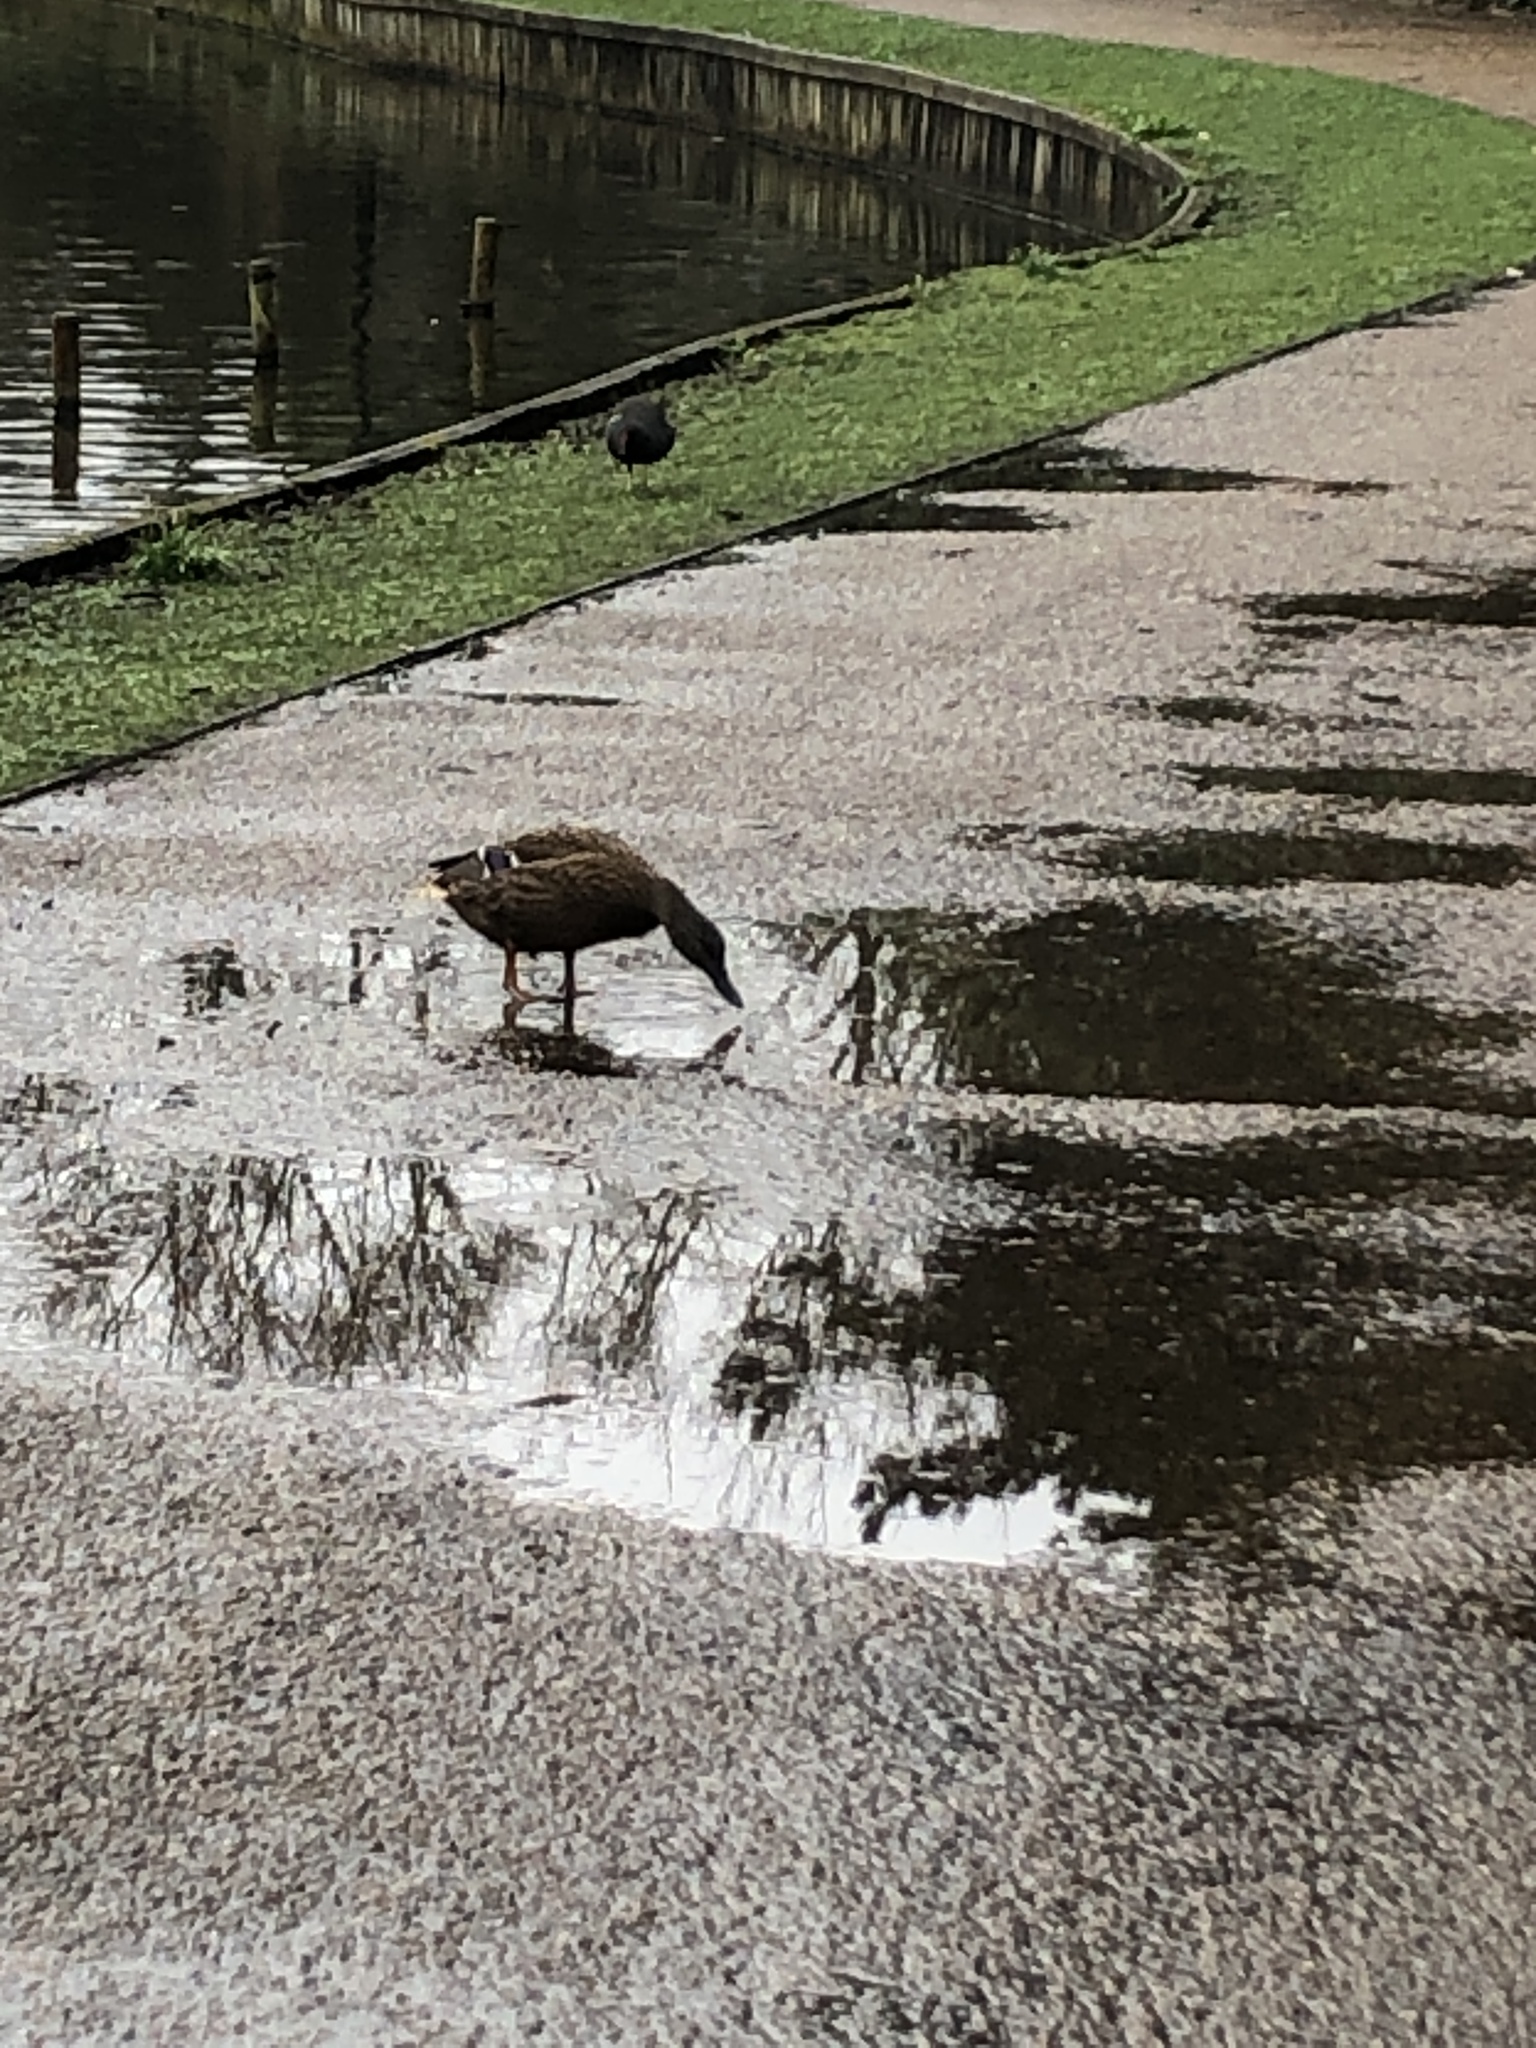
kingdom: Animalia
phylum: Chordata
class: Aves
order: Anseriformes
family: Anatidae
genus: Anas
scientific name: Anas platyrhynchos
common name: Mallard
